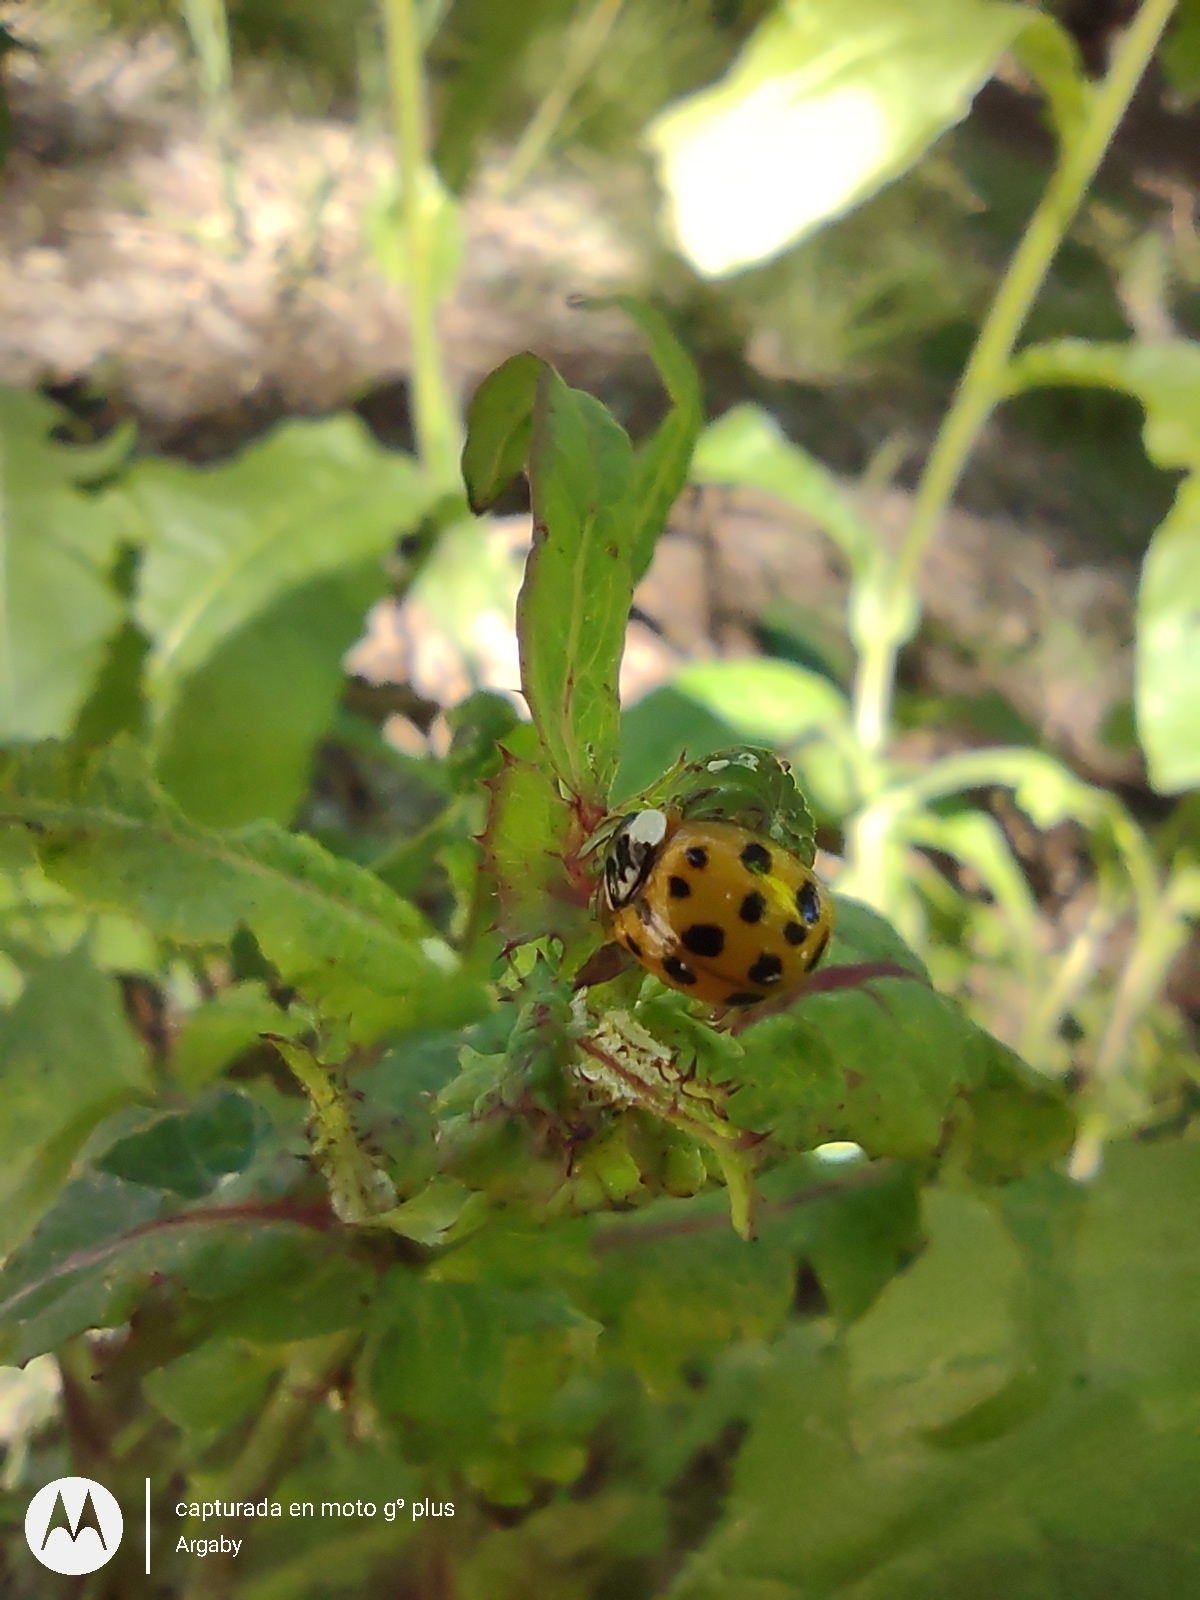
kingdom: Animalia
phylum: Arthropoda
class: Insecta
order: Coleoptera
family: Coccinellidae
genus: Harmonia
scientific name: Harmonia axyridis
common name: Harlequin ladybird
